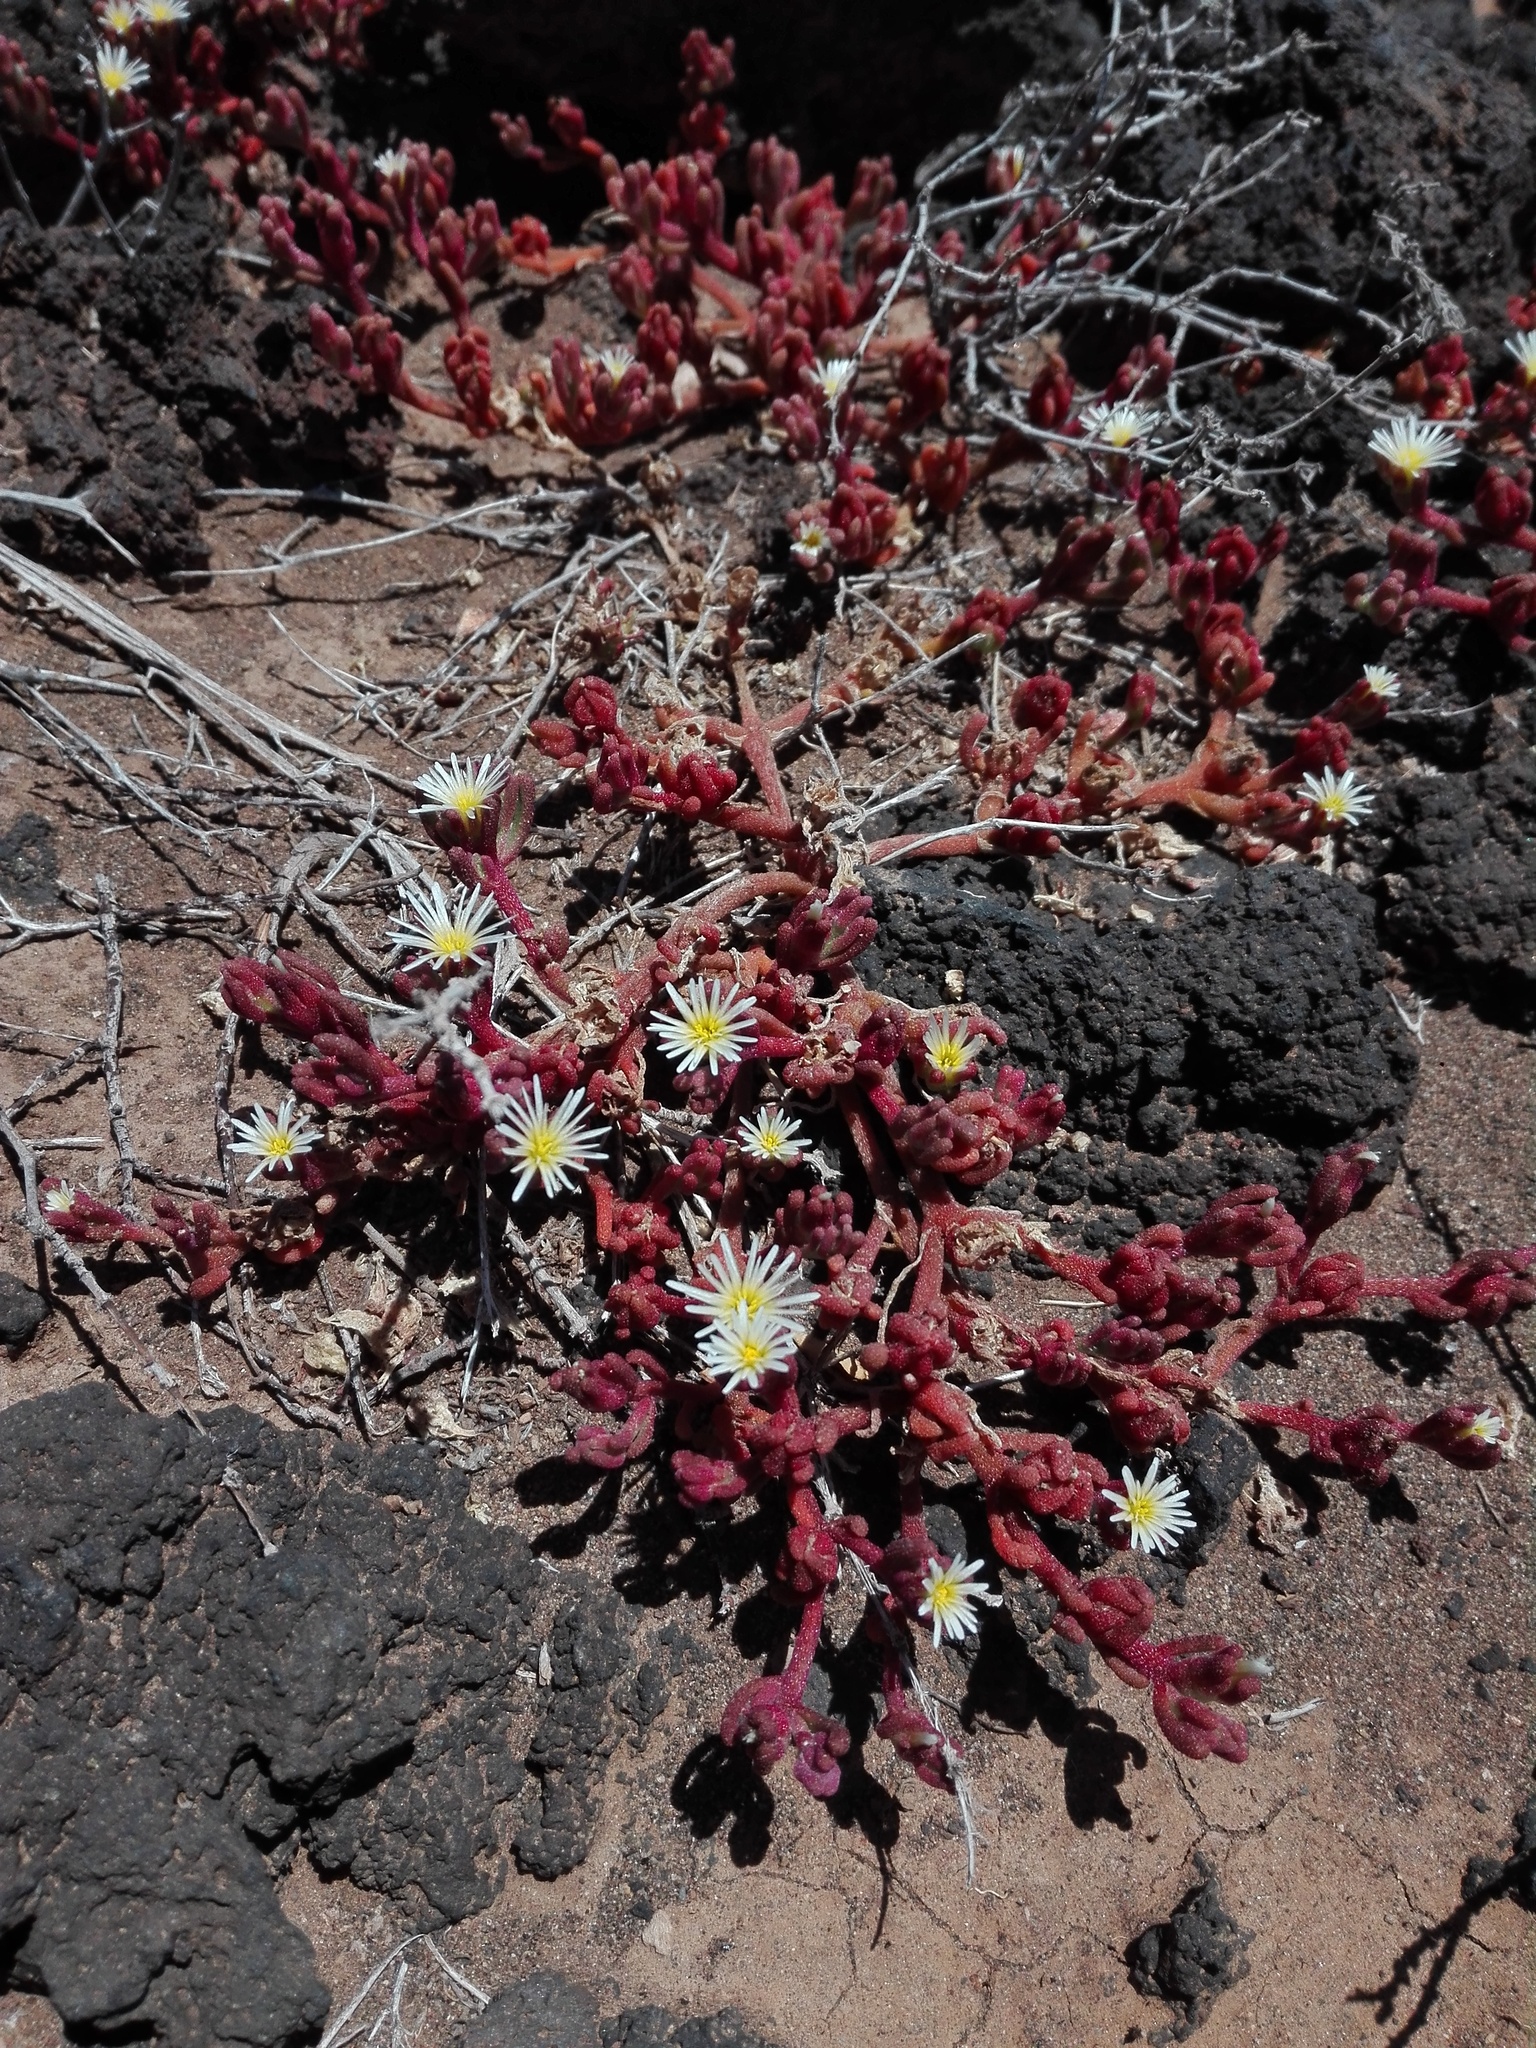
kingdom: Plantae
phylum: Tracheophyta
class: Magnoliopsida
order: Caryophyllales
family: Aizoaceae
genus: Mesembryanthemum
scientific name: Mesembryanthemum nodiflorum
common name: Slenderleaf iceplant
